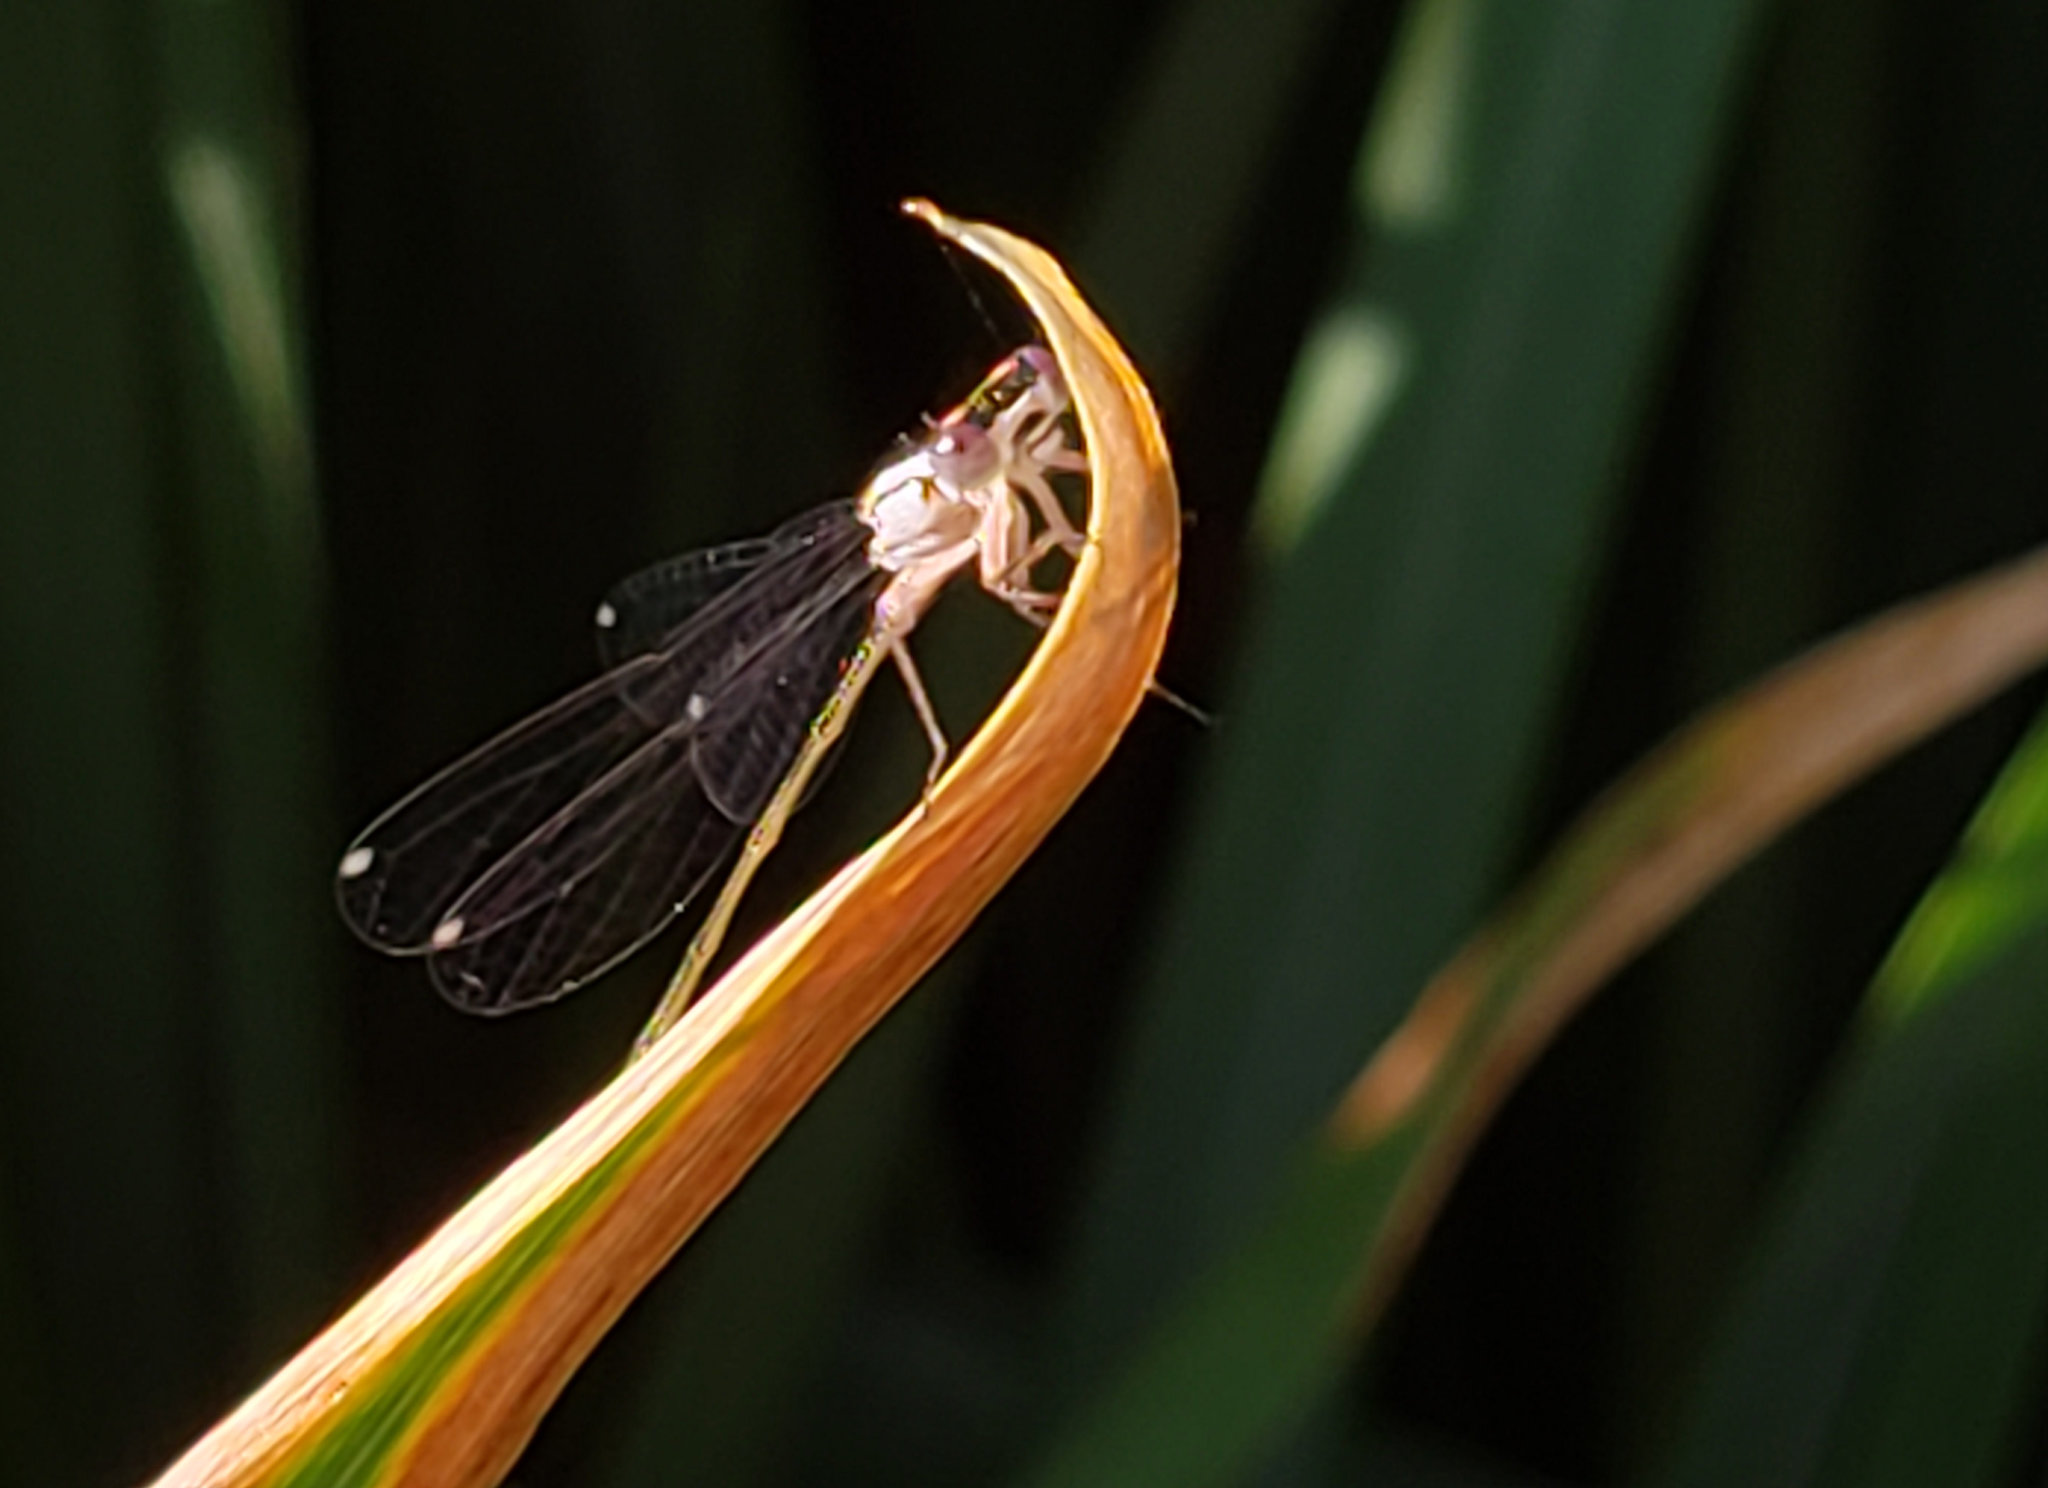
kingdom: Animalia
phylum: Arthropoda
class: Insecta
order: Odonata
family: Coenagrionidae
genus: Ischnura
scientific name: Ischnura cervula
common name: Pacific forktail
